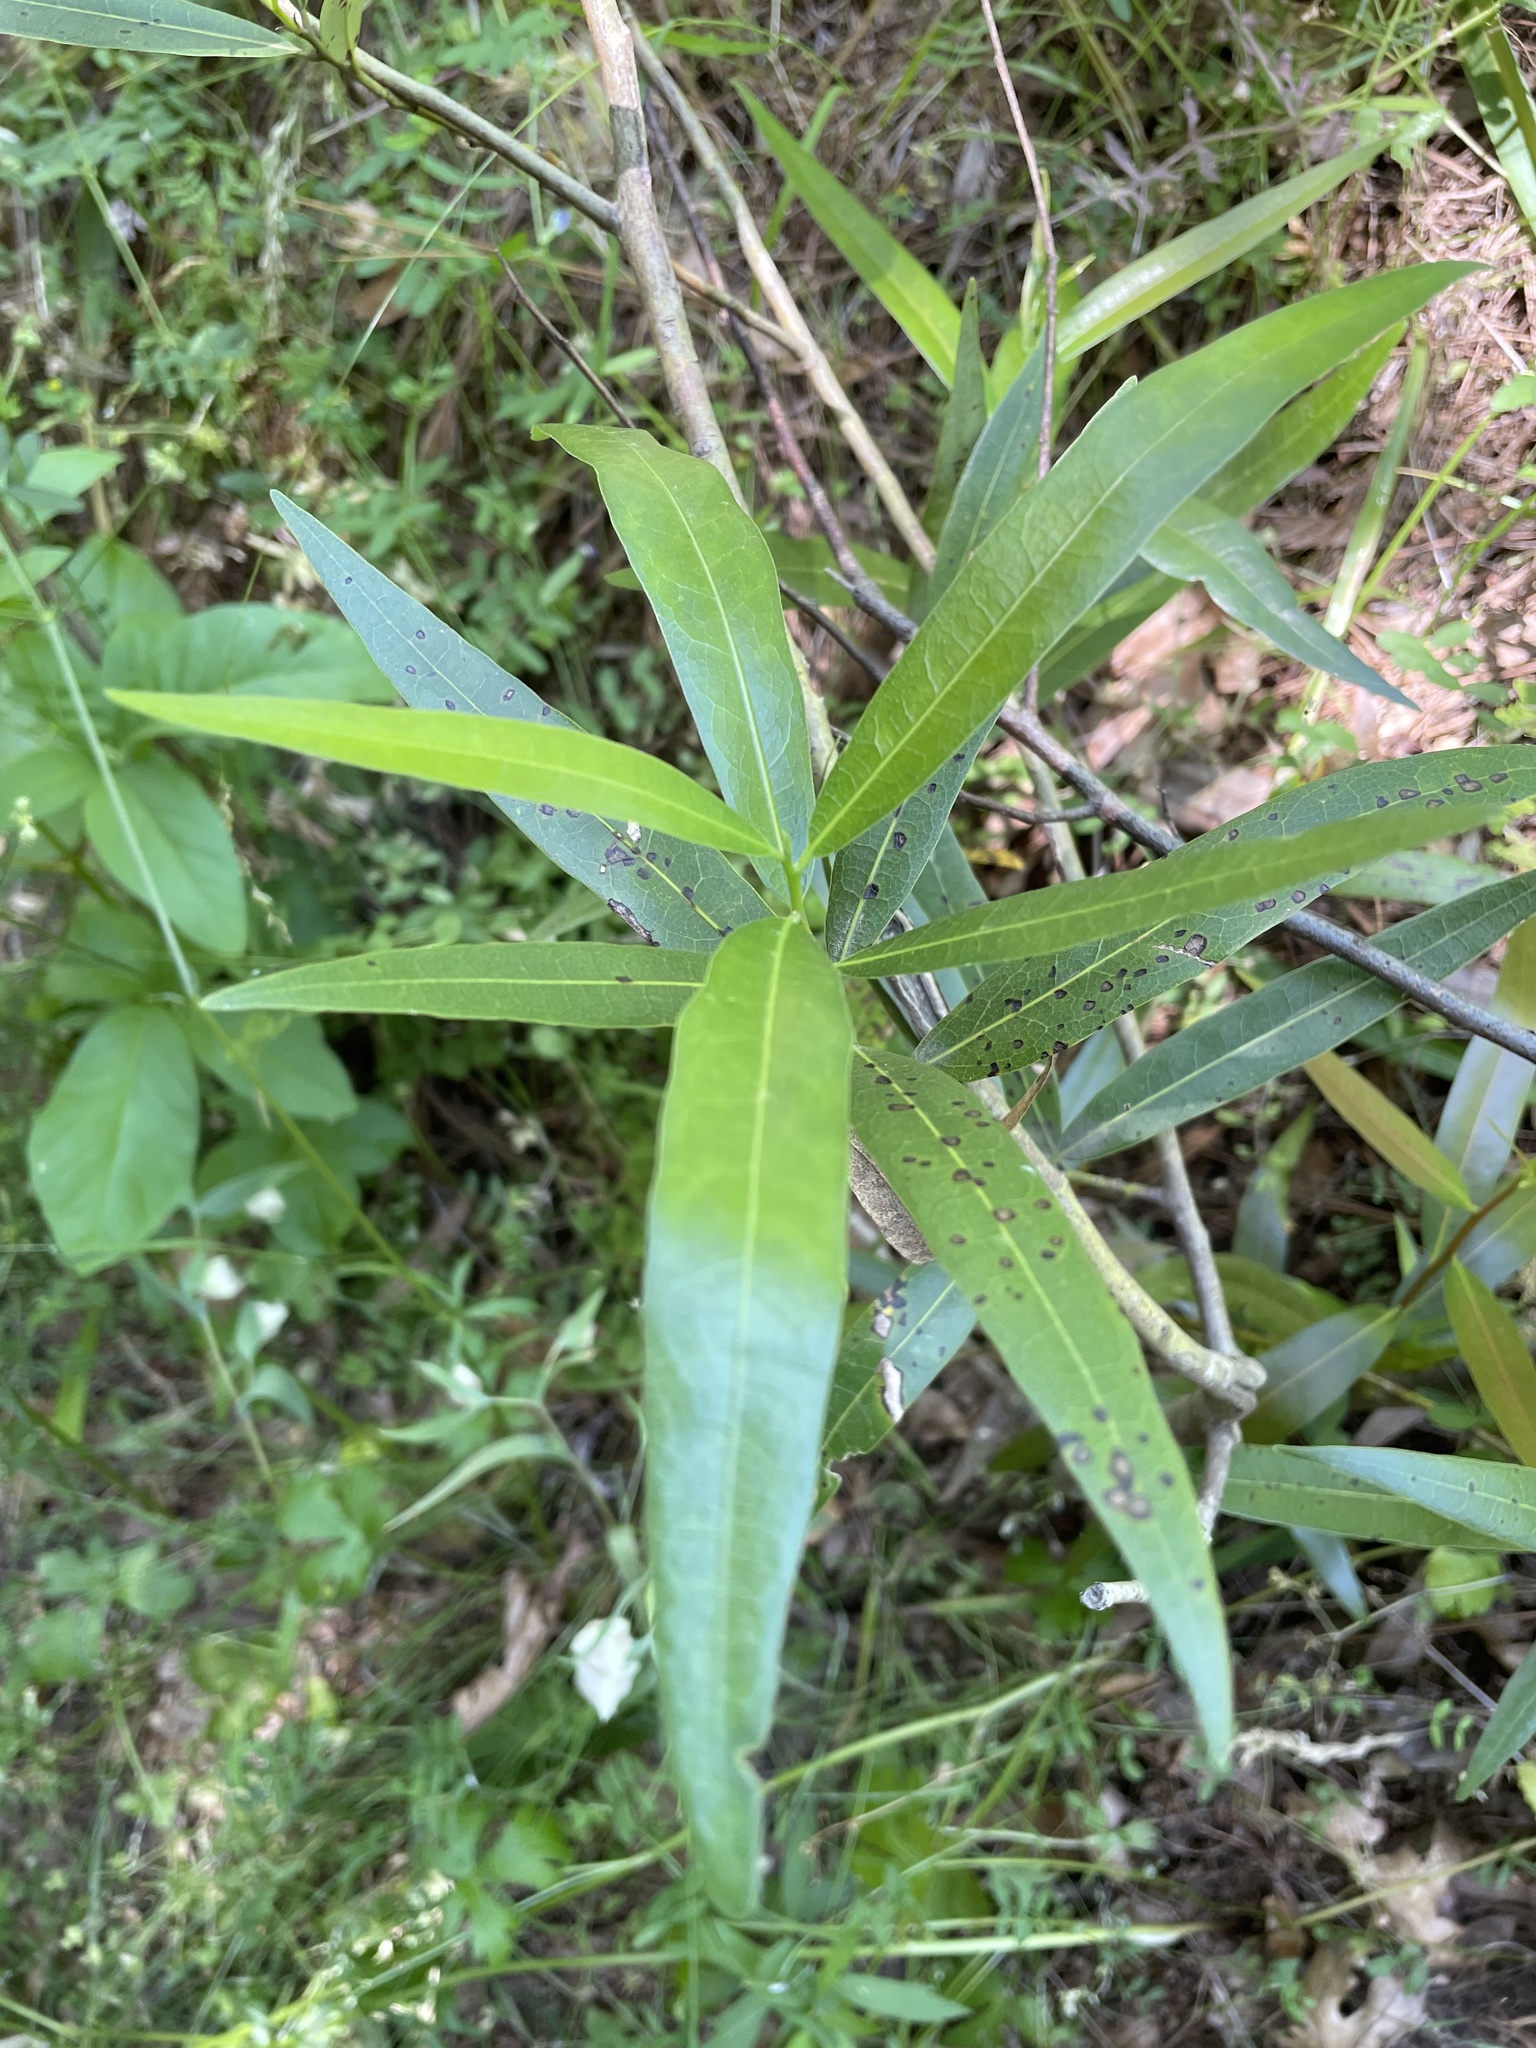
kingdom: Plantae
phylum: Tracheophyta
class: Magnoliopsida
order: Laurales
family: Lauraceae
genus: Umbellularia
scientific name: Umbellularia californica
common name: California bay
